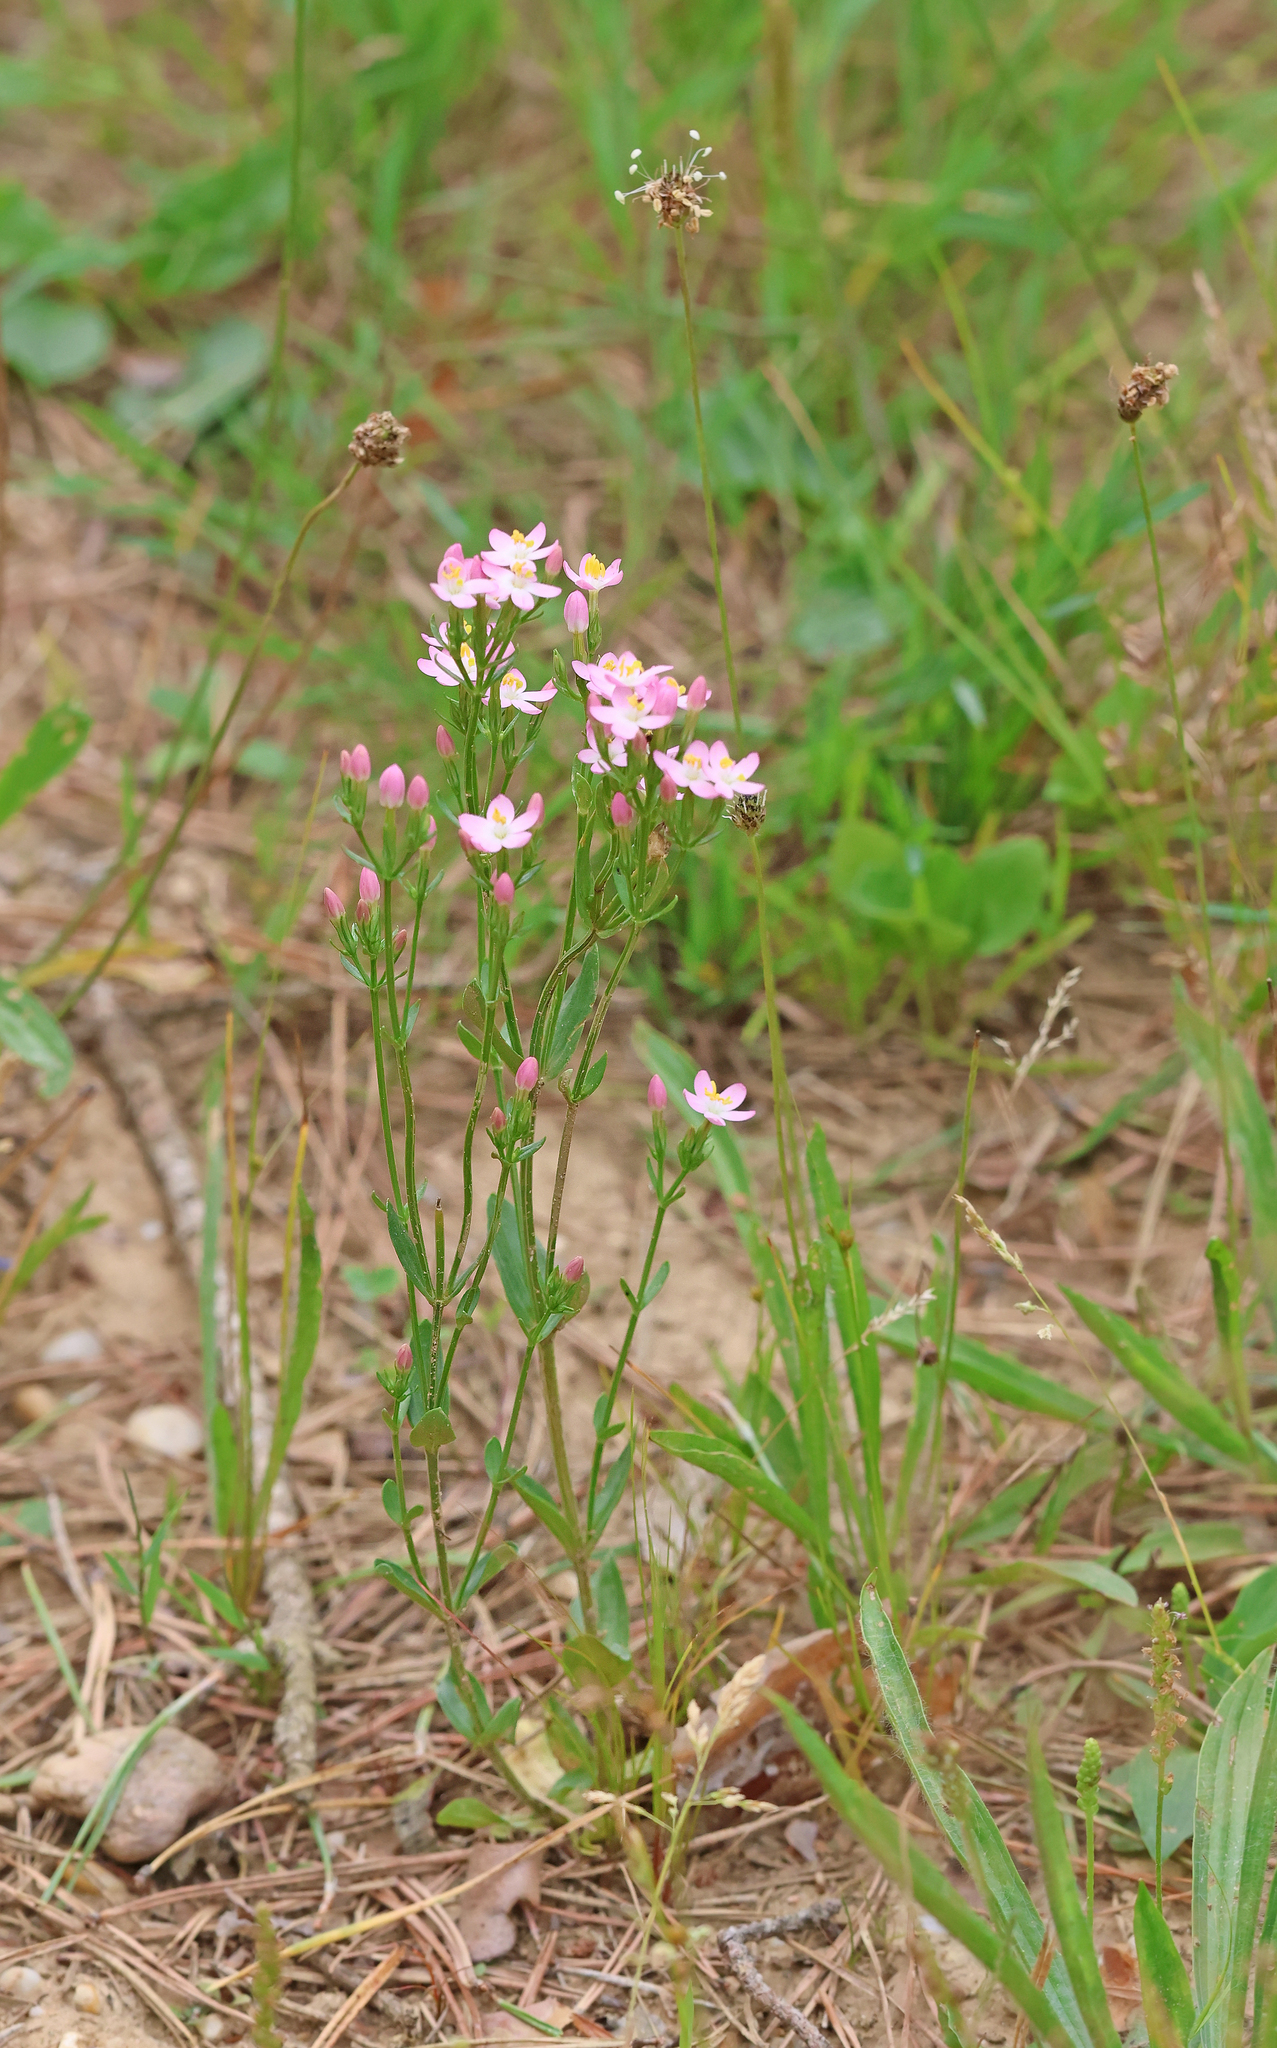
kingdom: Plantae
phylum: Tracheophyta
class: Magnoliopsida
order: Gentianales
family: Gentianaceae
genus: Centaurium
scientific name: Centaurium erythraea
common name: Common centaury
